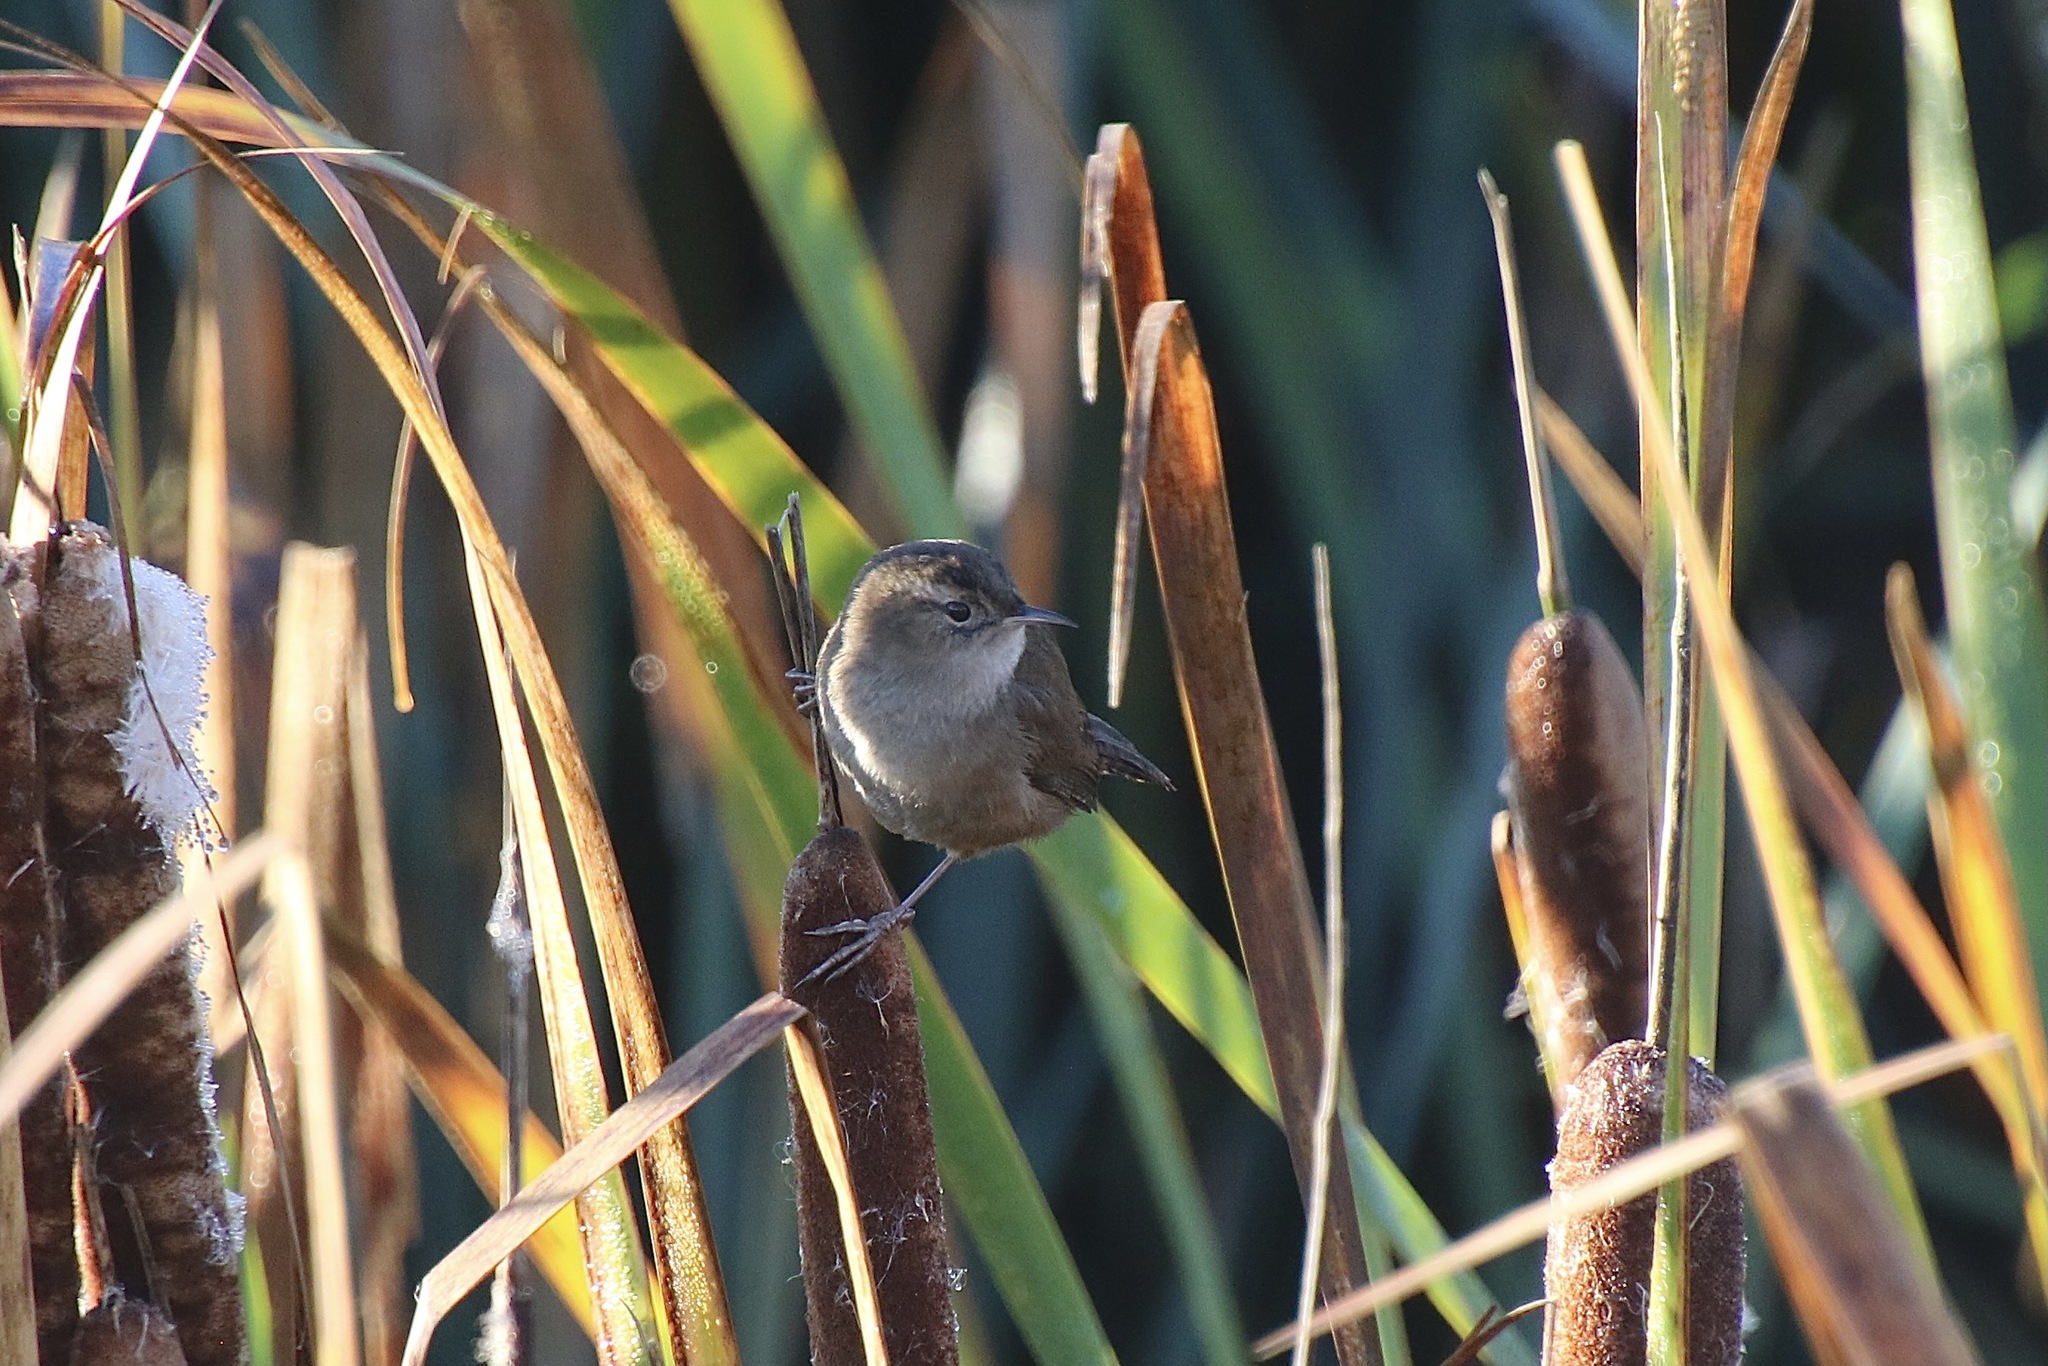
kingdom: Animalia
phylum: Chordata
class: Aves
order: Passeriformes
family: Troglodytidae
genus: Cistothorus
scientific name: Cistothorus palustris
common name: Marsh wren
